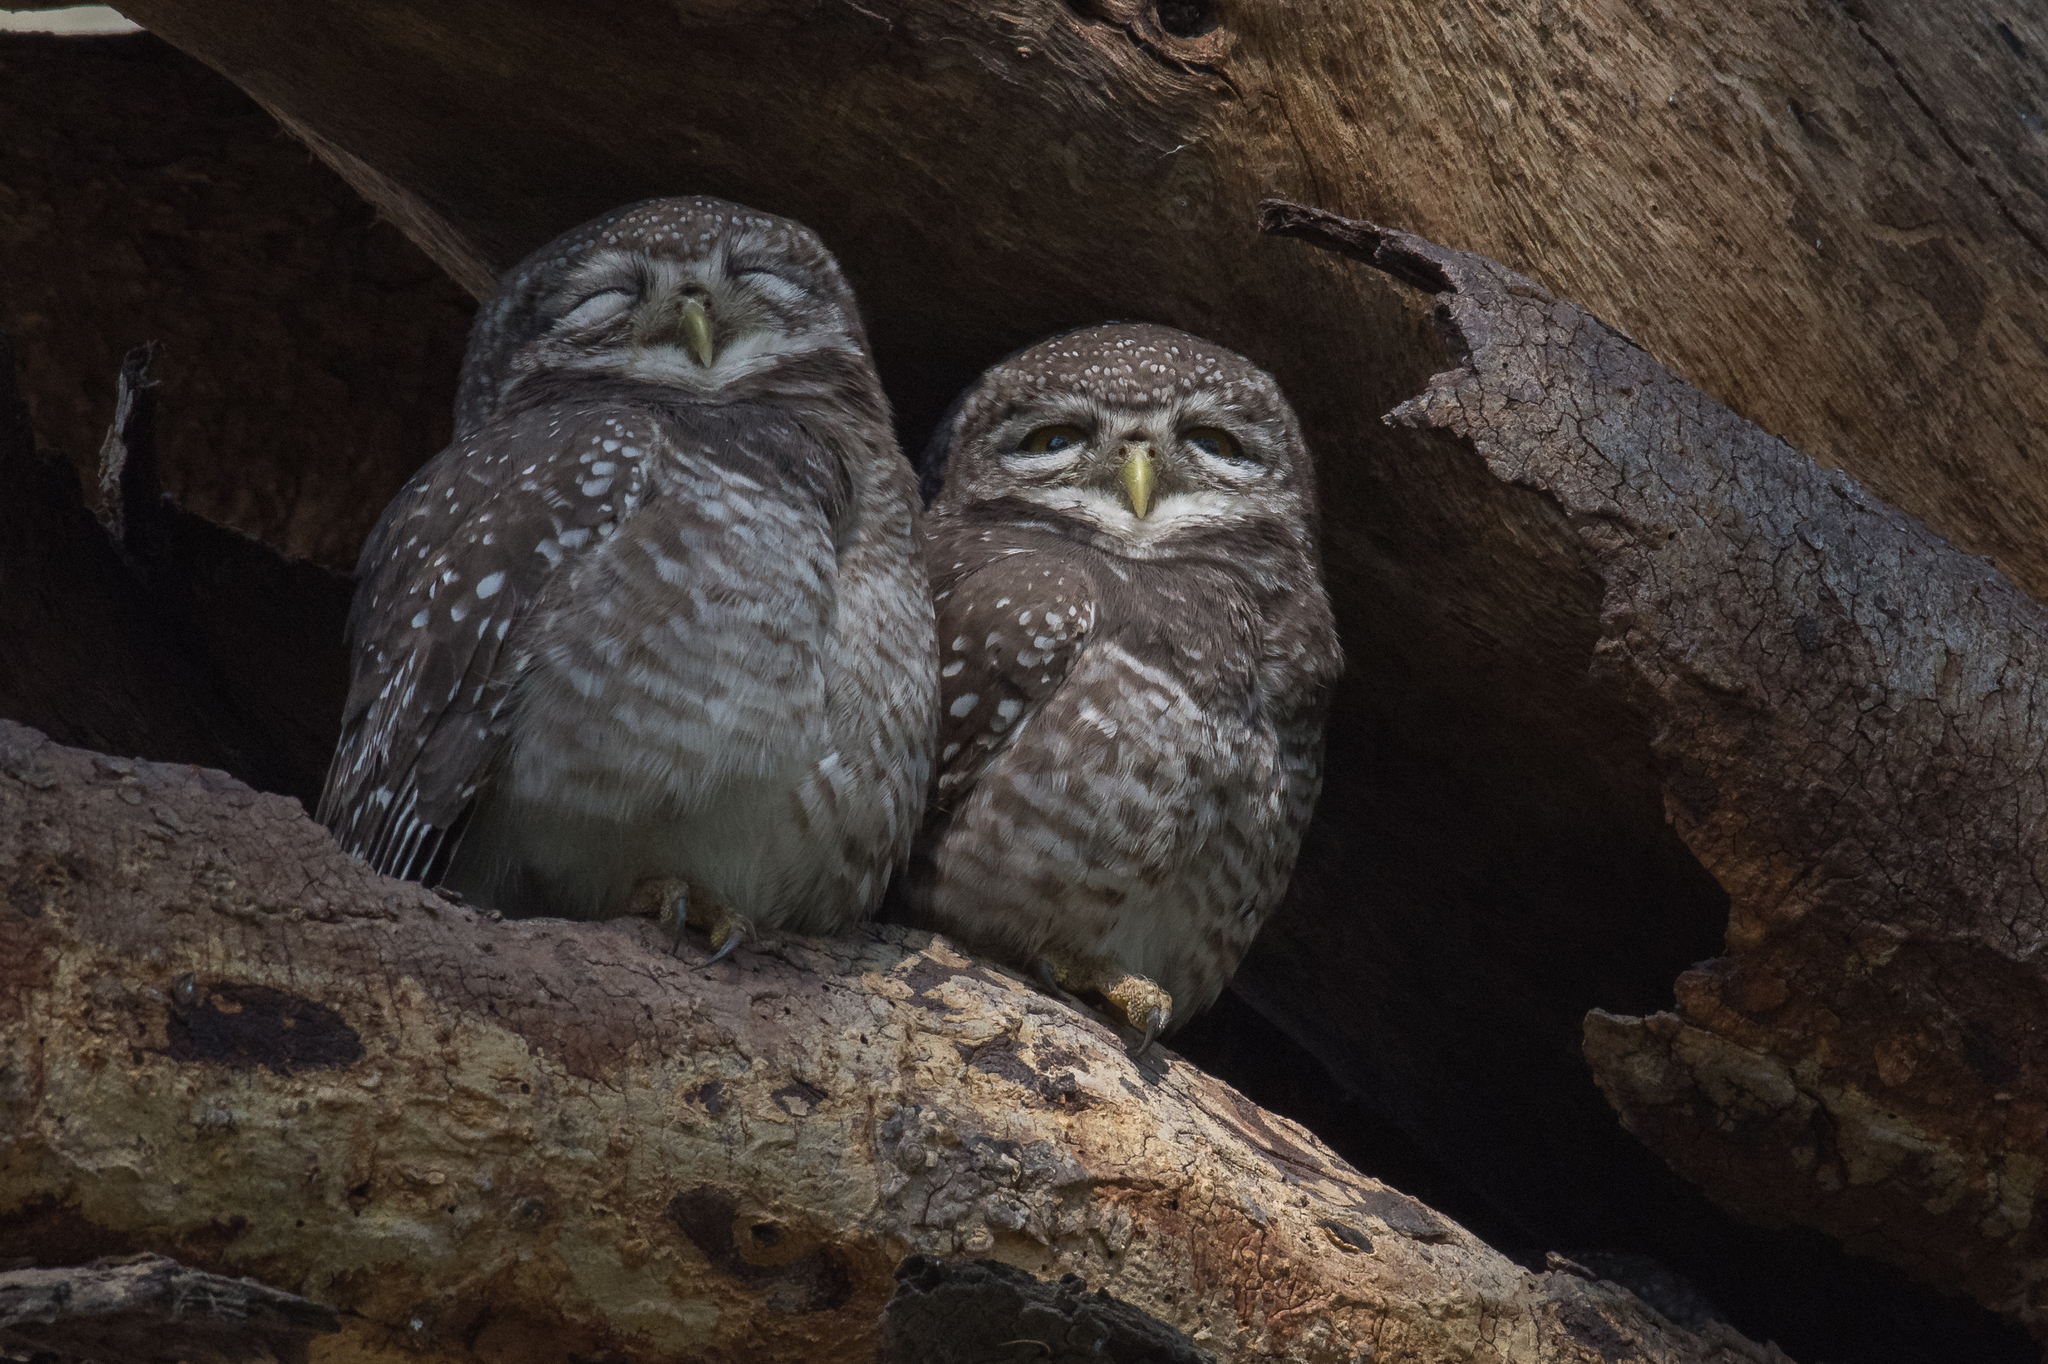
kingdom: Animalia
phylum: Chordata
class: Aves
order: Strigiformes
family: Strigidae
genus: Athene
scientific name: Athene brama
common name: Spotted owlet
